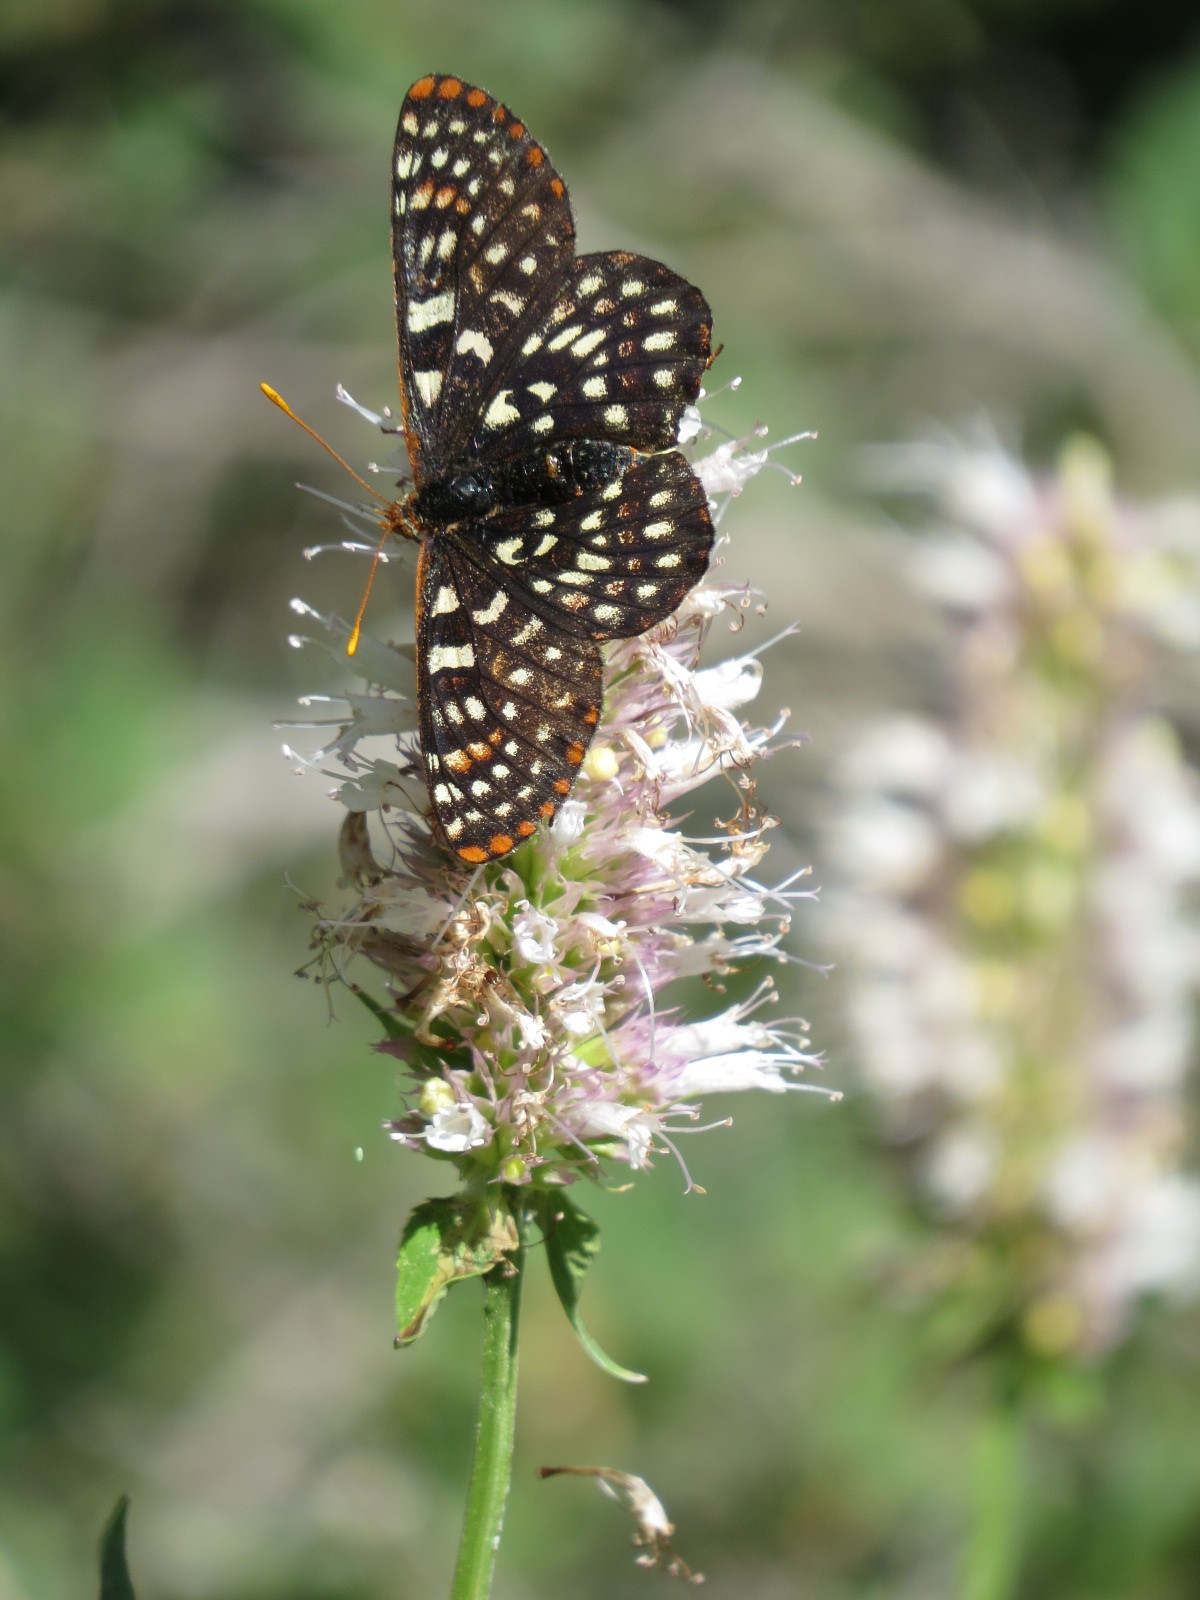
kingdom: Animalia
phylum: Arthropoda
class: Insecta
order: Lepidoptera
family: Nymphalidae
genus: Occidryas
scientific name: Occidryas chalcedona
